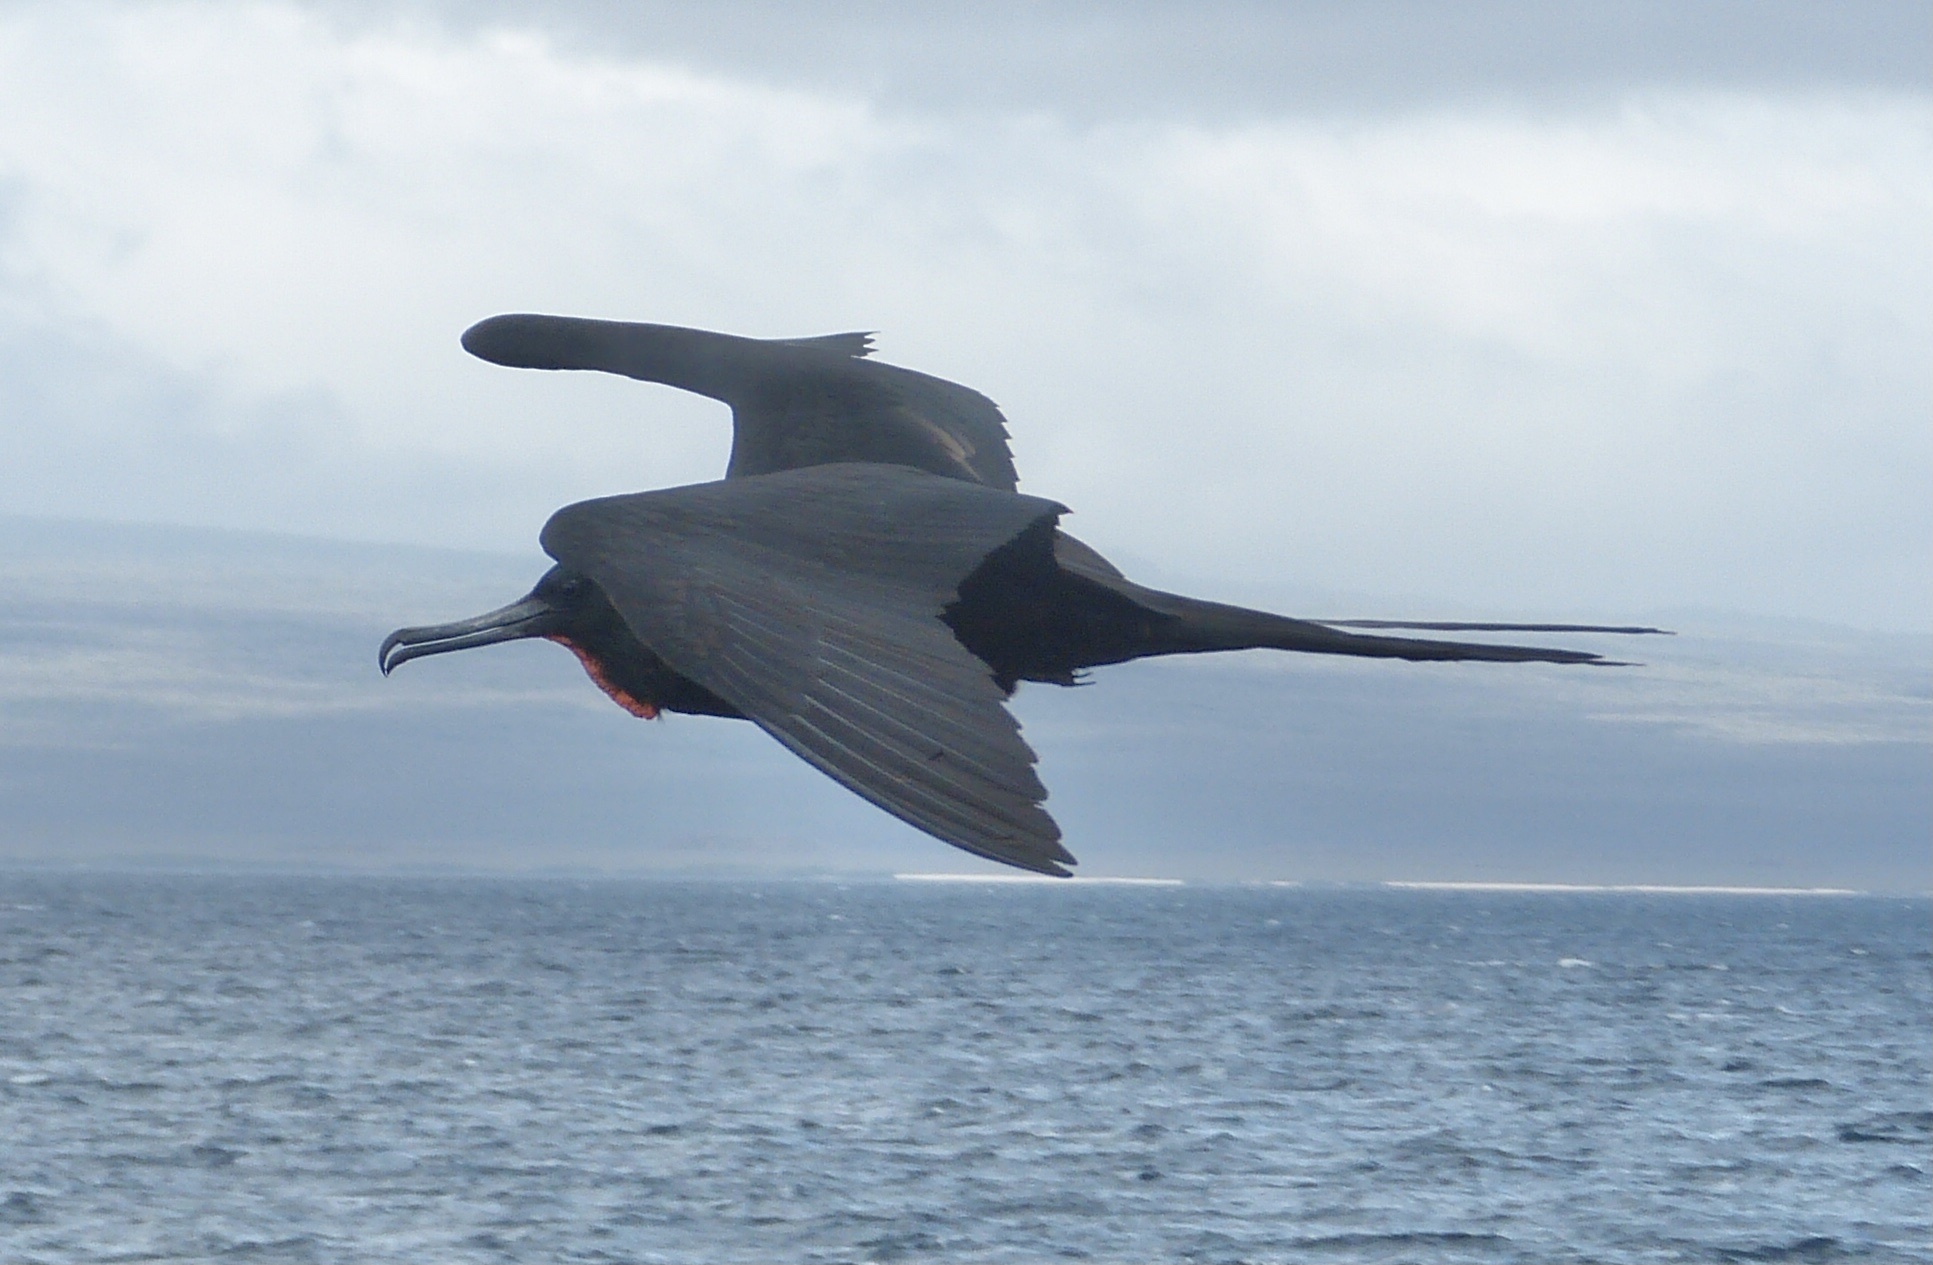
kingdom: Animalia
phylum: Chordata
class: Aves
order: Suliformes
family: Fregatidae
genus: Fregata
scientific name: Fregata magnificens
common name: Magnificent frigatebird
